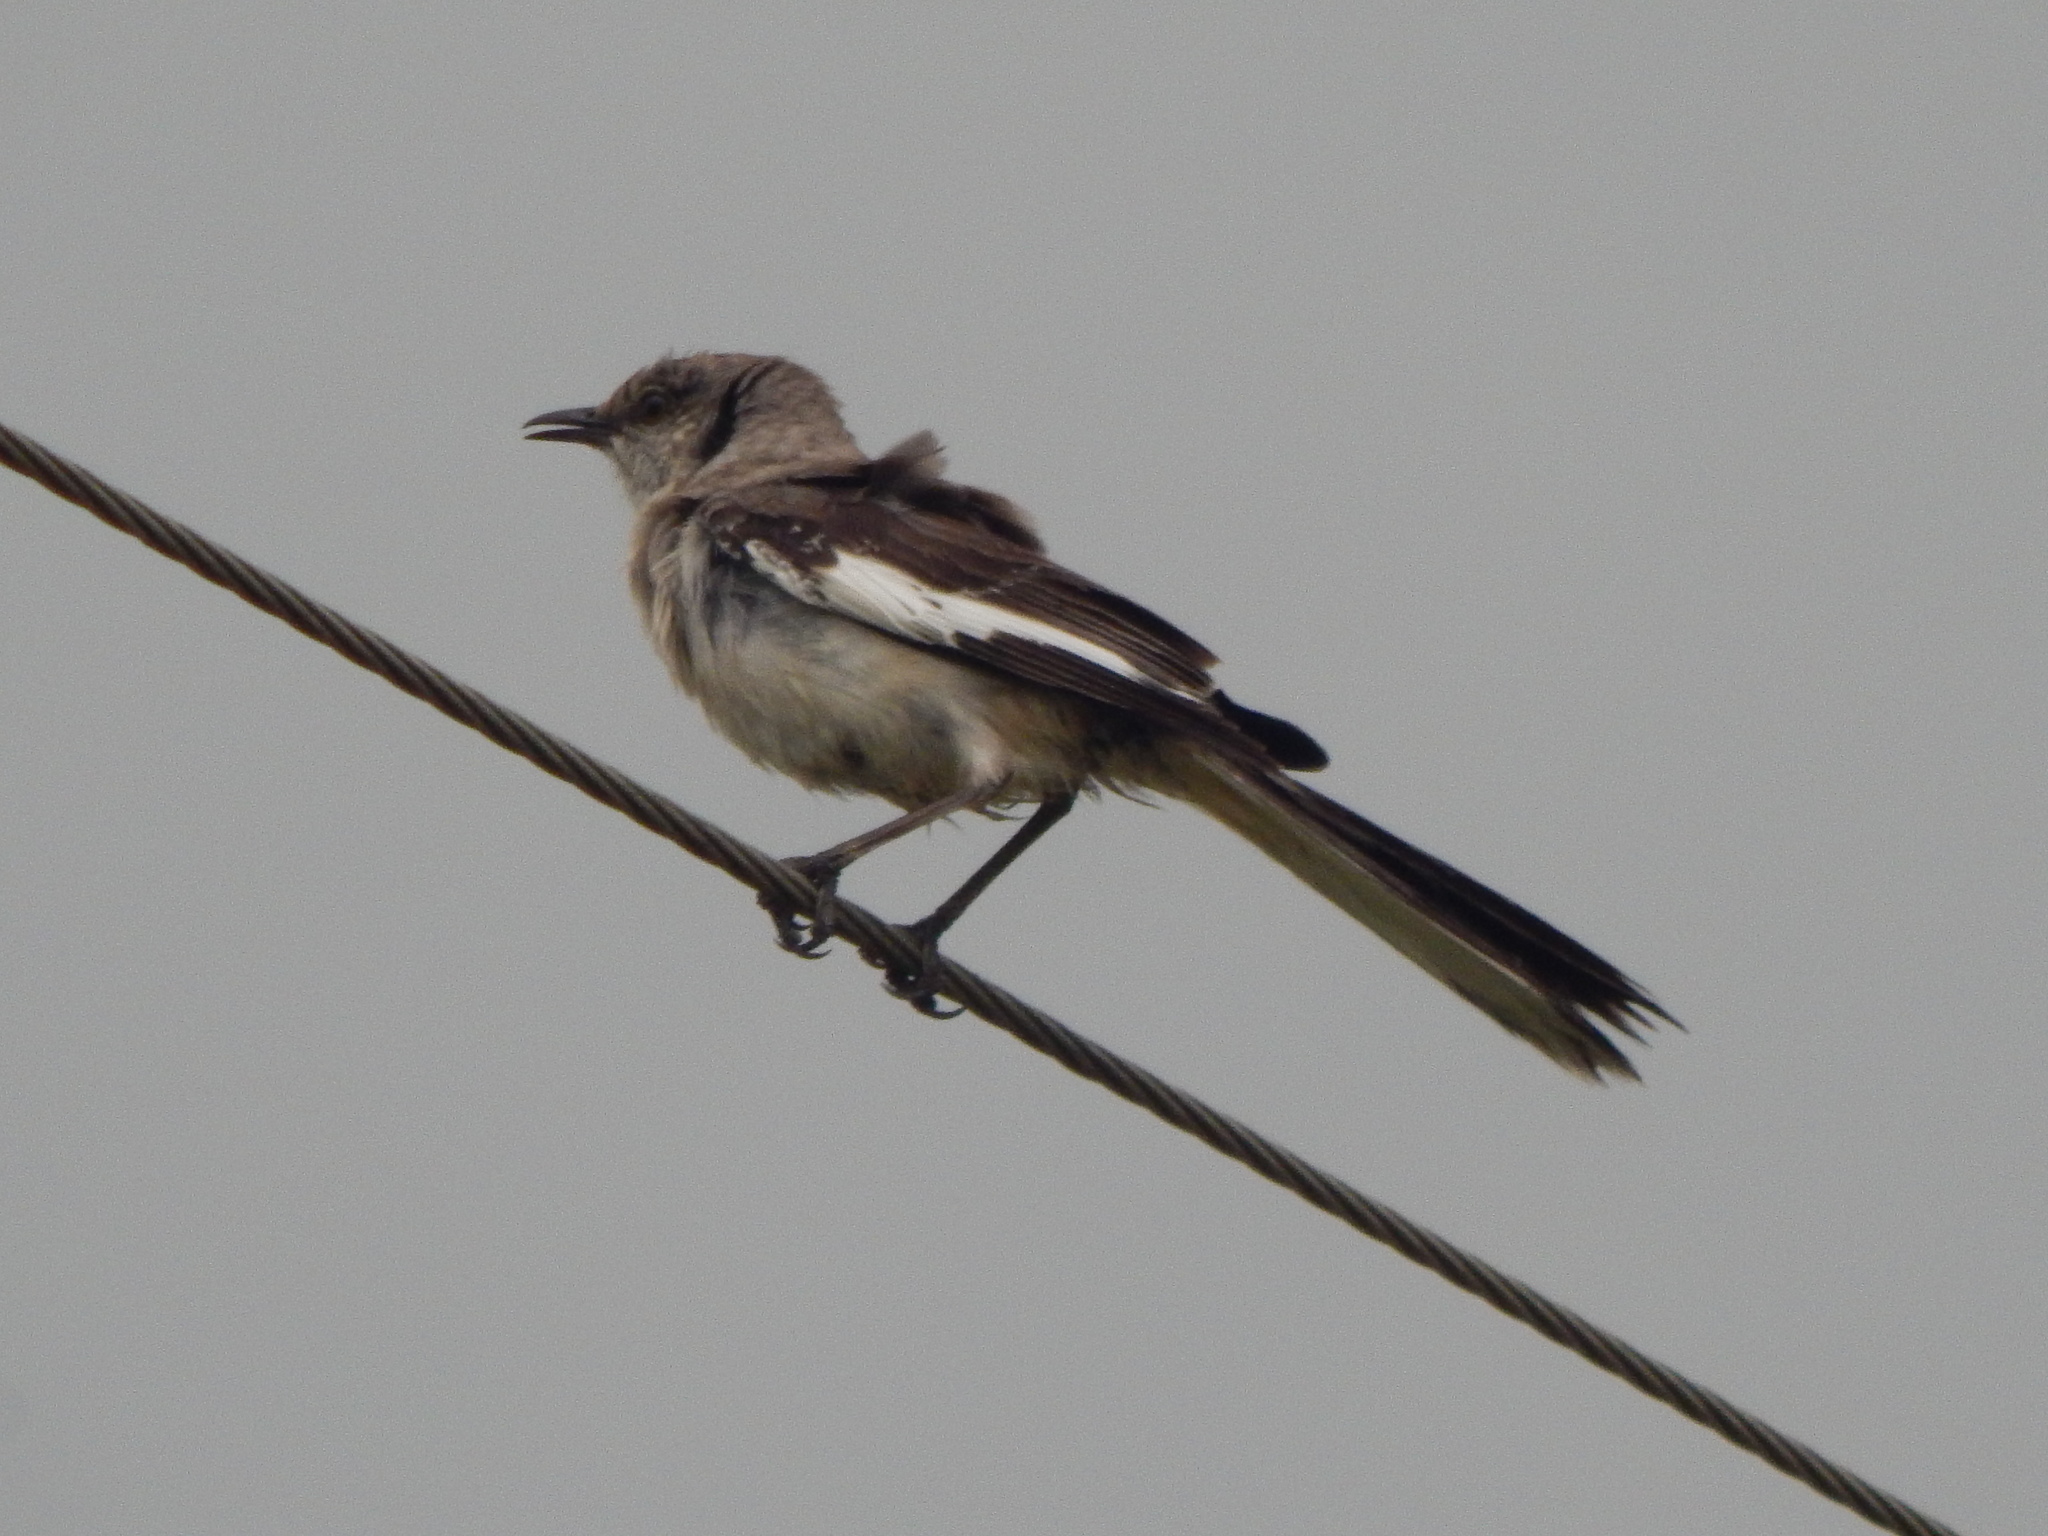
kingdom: Animalia
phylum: Chordata
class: Aves
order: Passeriformes
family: Mimidae
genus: Mimus
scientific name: Mimus polyglottos
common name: Northern mockingbird
